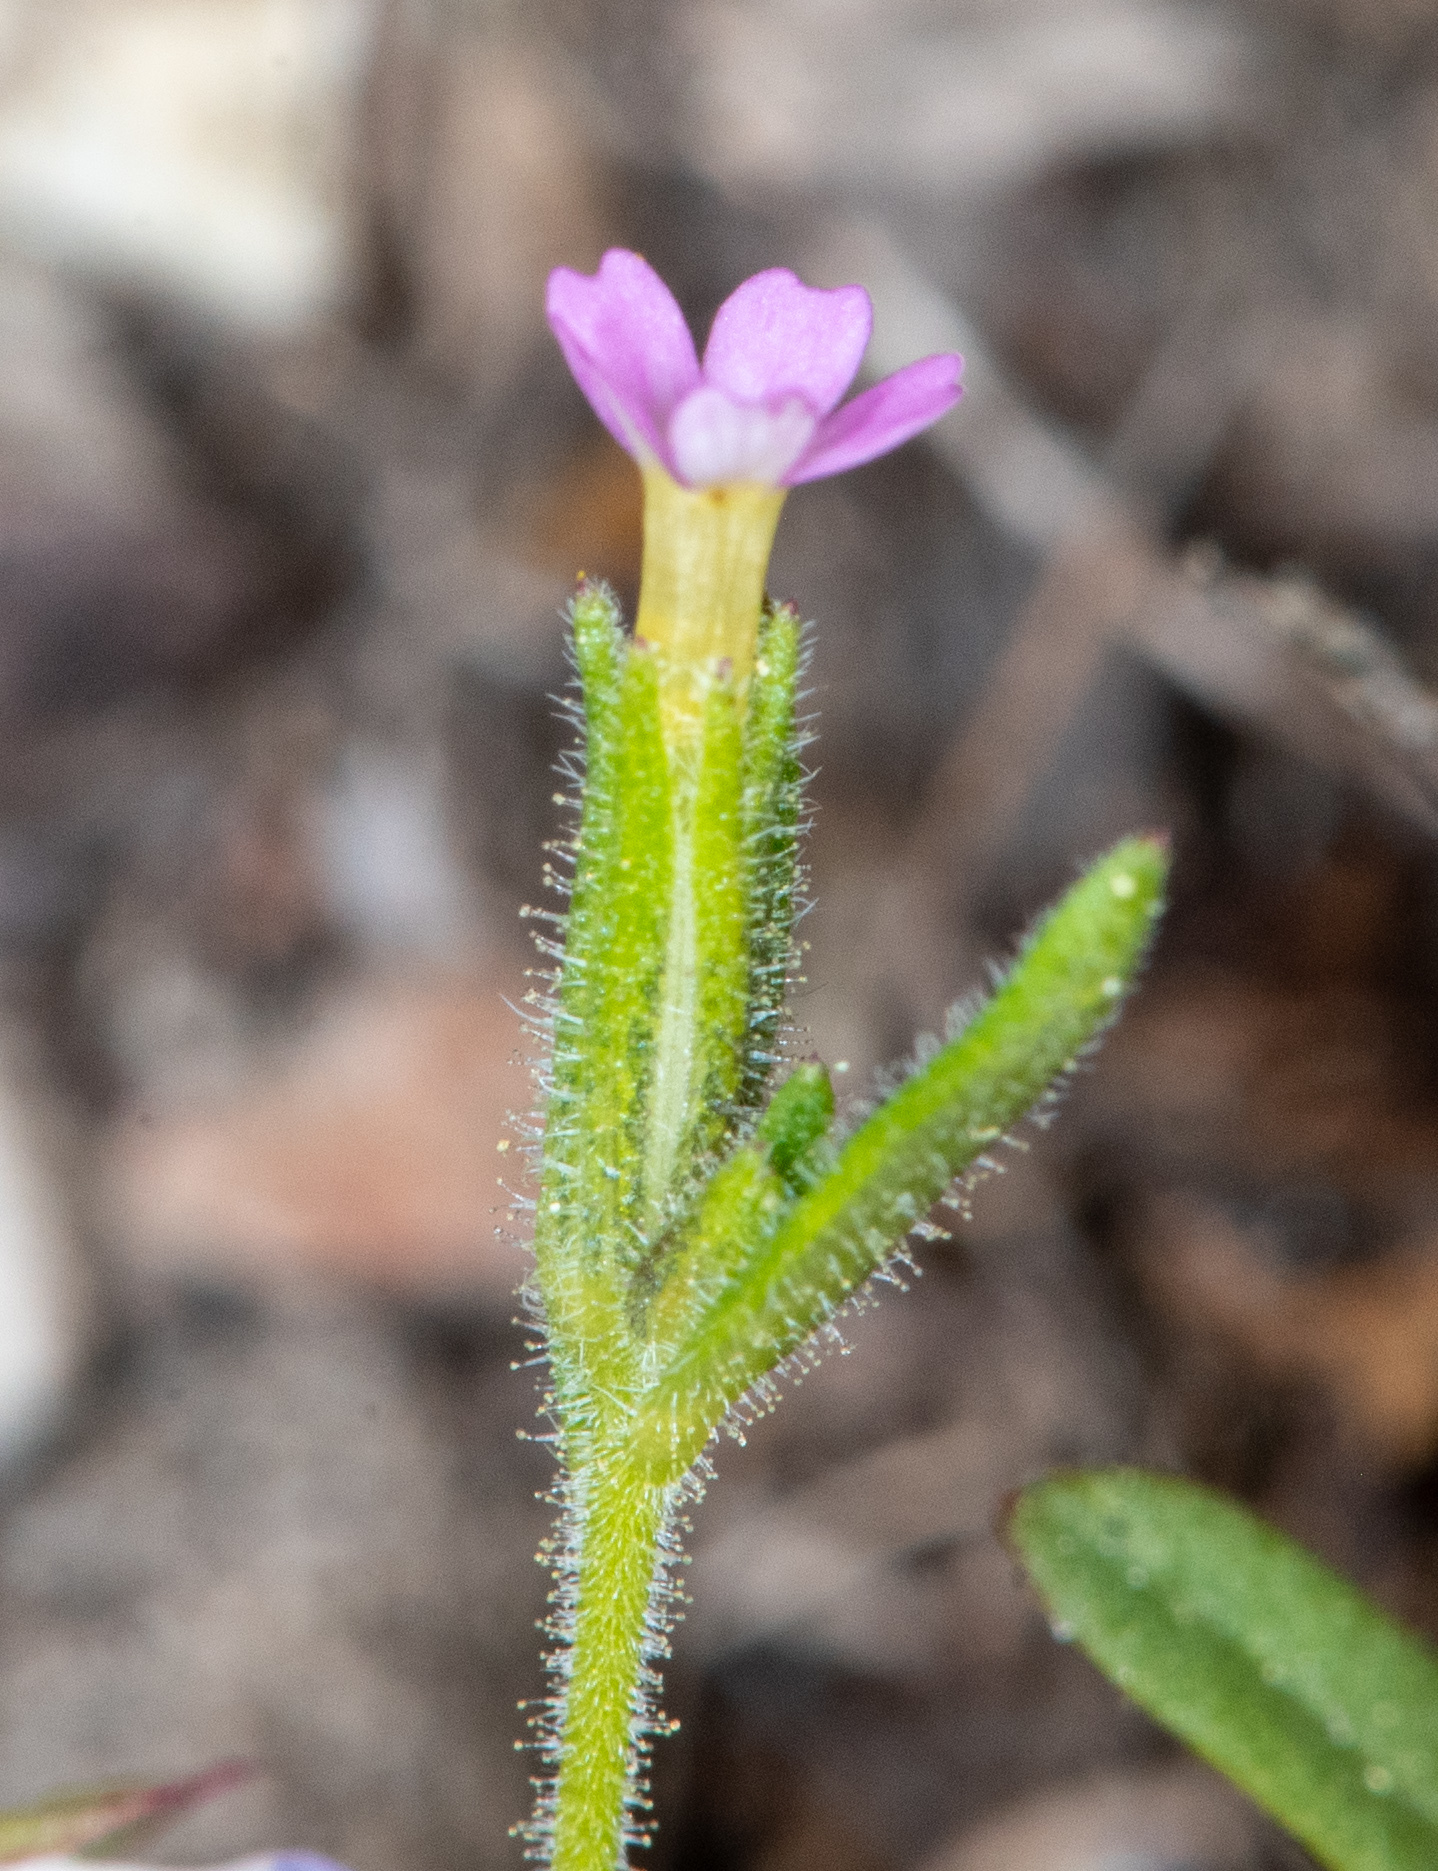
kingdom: Plantae
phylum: Tracheophyta
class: Magnoliopsida
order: Ericales
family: Polemoniaceae
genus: Phlox
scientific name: Phlox gracilis
